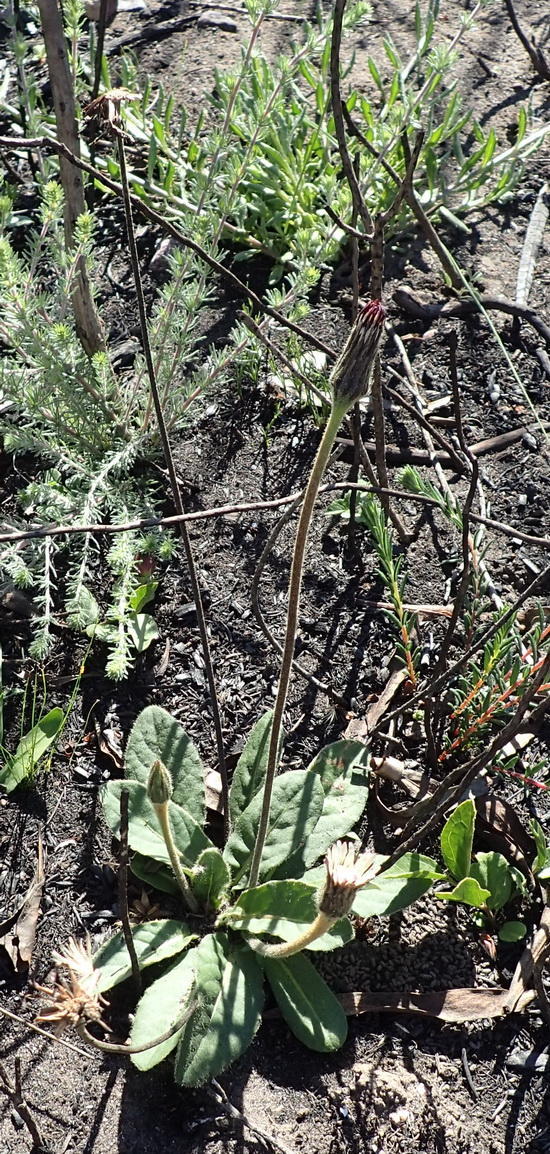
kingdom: Plantae
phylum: Tracheophyta
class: Magnoliopsida
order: Asterales
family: Asteraceae
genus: Piloselloides
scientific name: Piloselloides hirsuta
